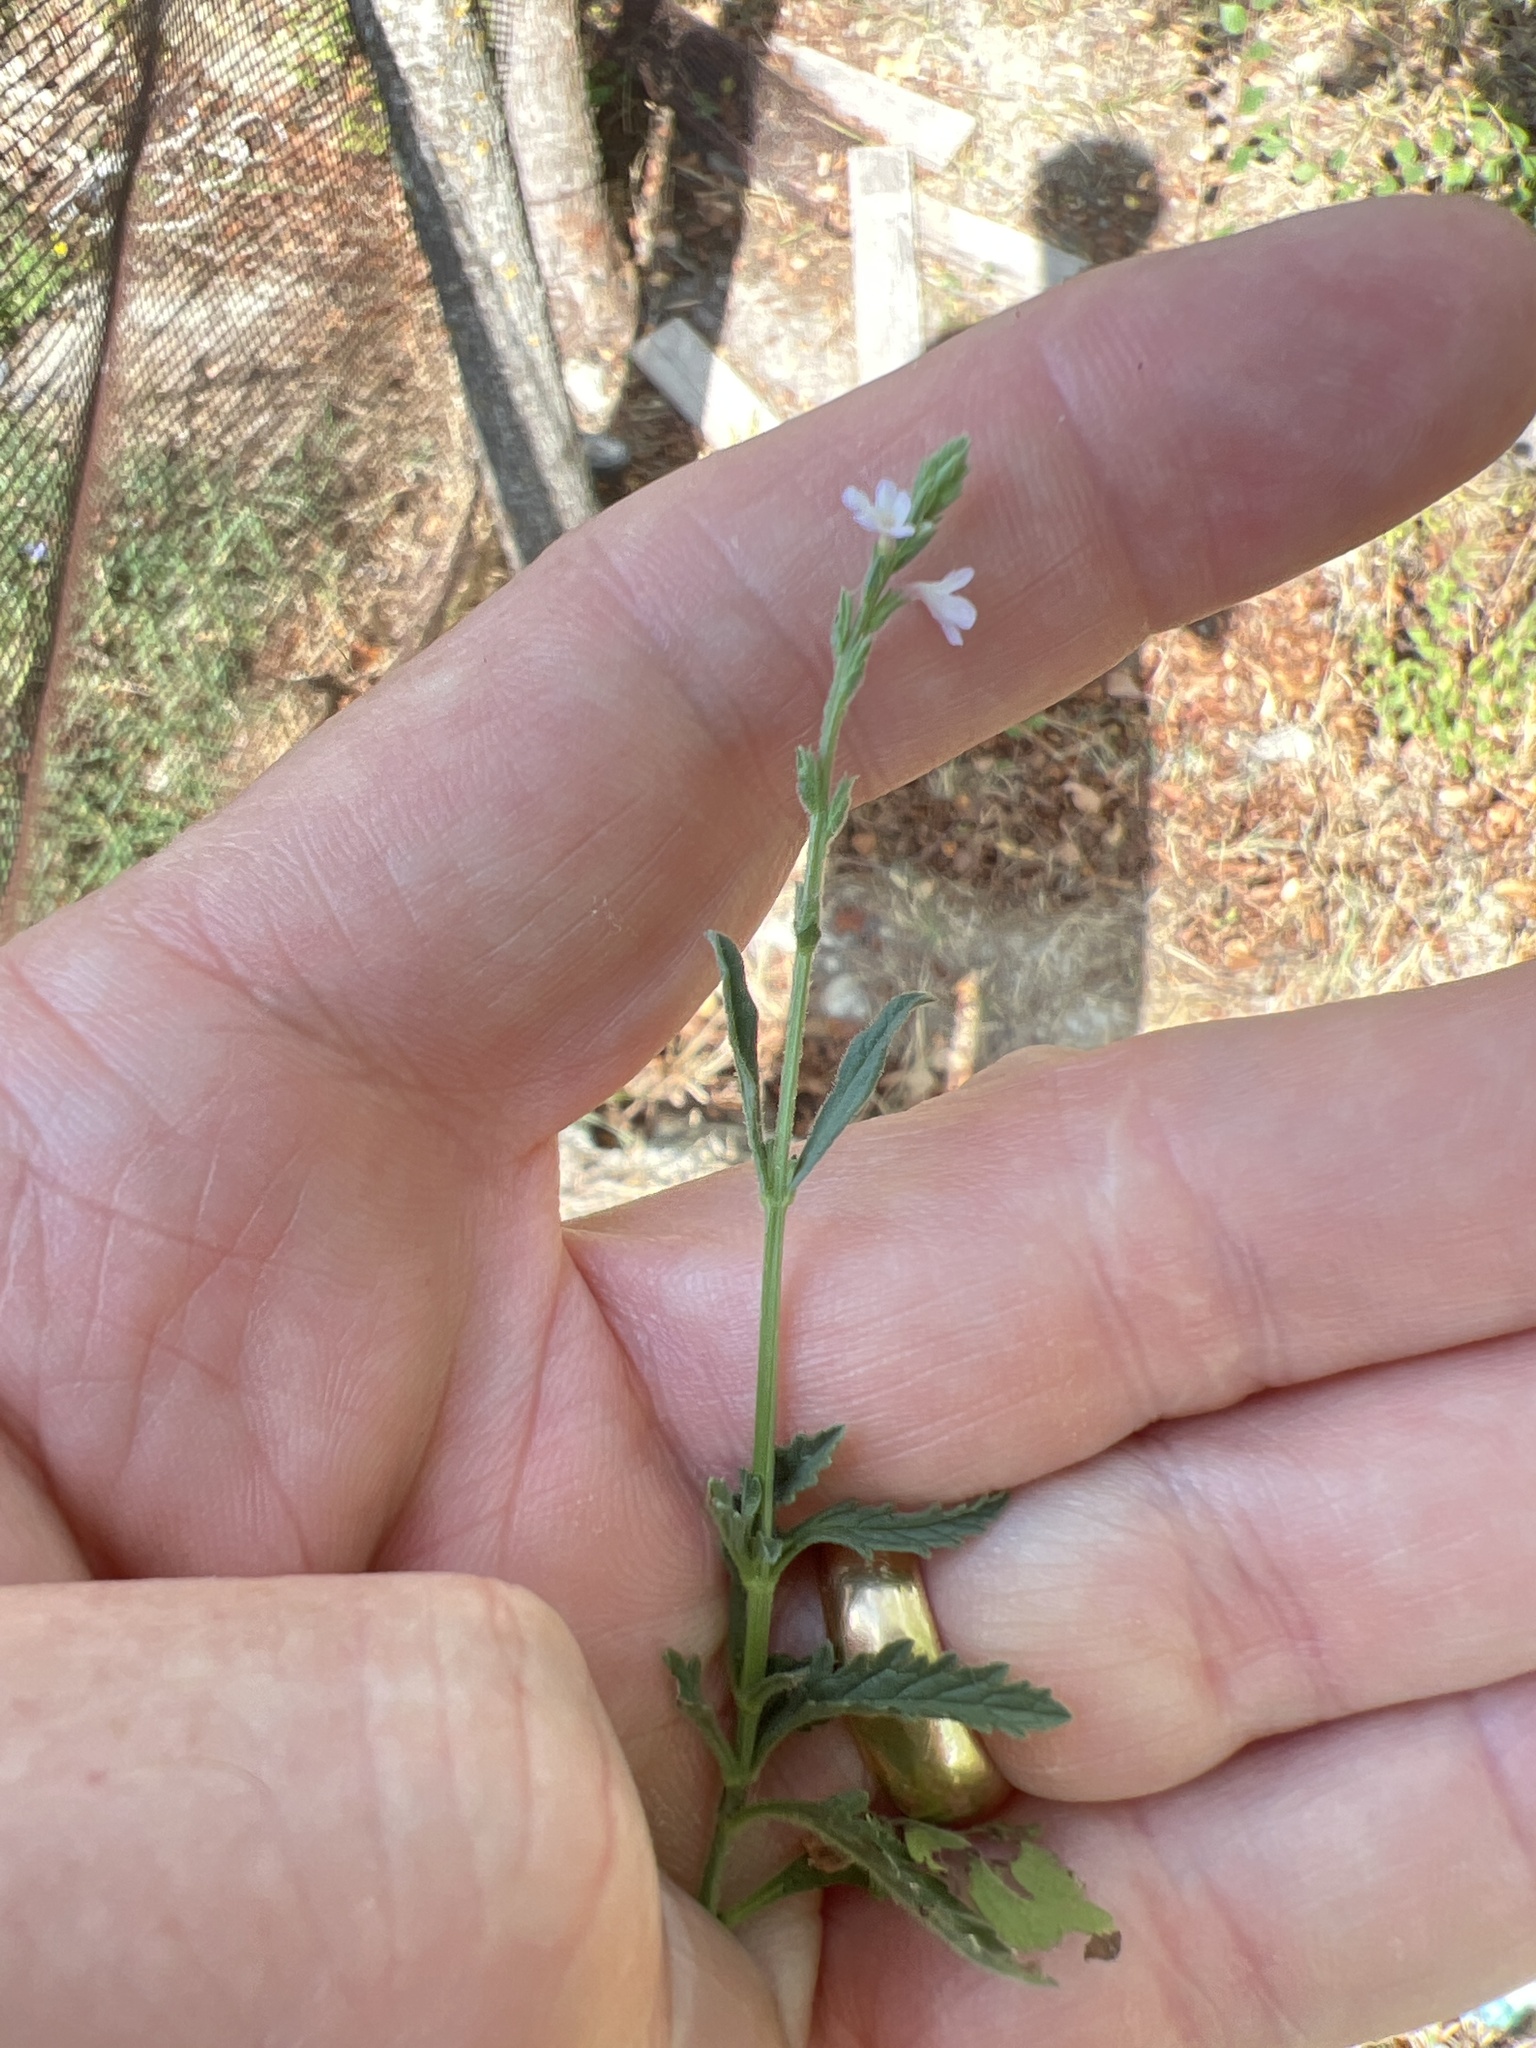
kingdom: Plantae
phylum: Tracheophyta
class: Magnoliopsida
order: Lamiales
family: Verbenaceae
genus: Verbena
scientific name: Verbena officinalis
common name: Vervain
